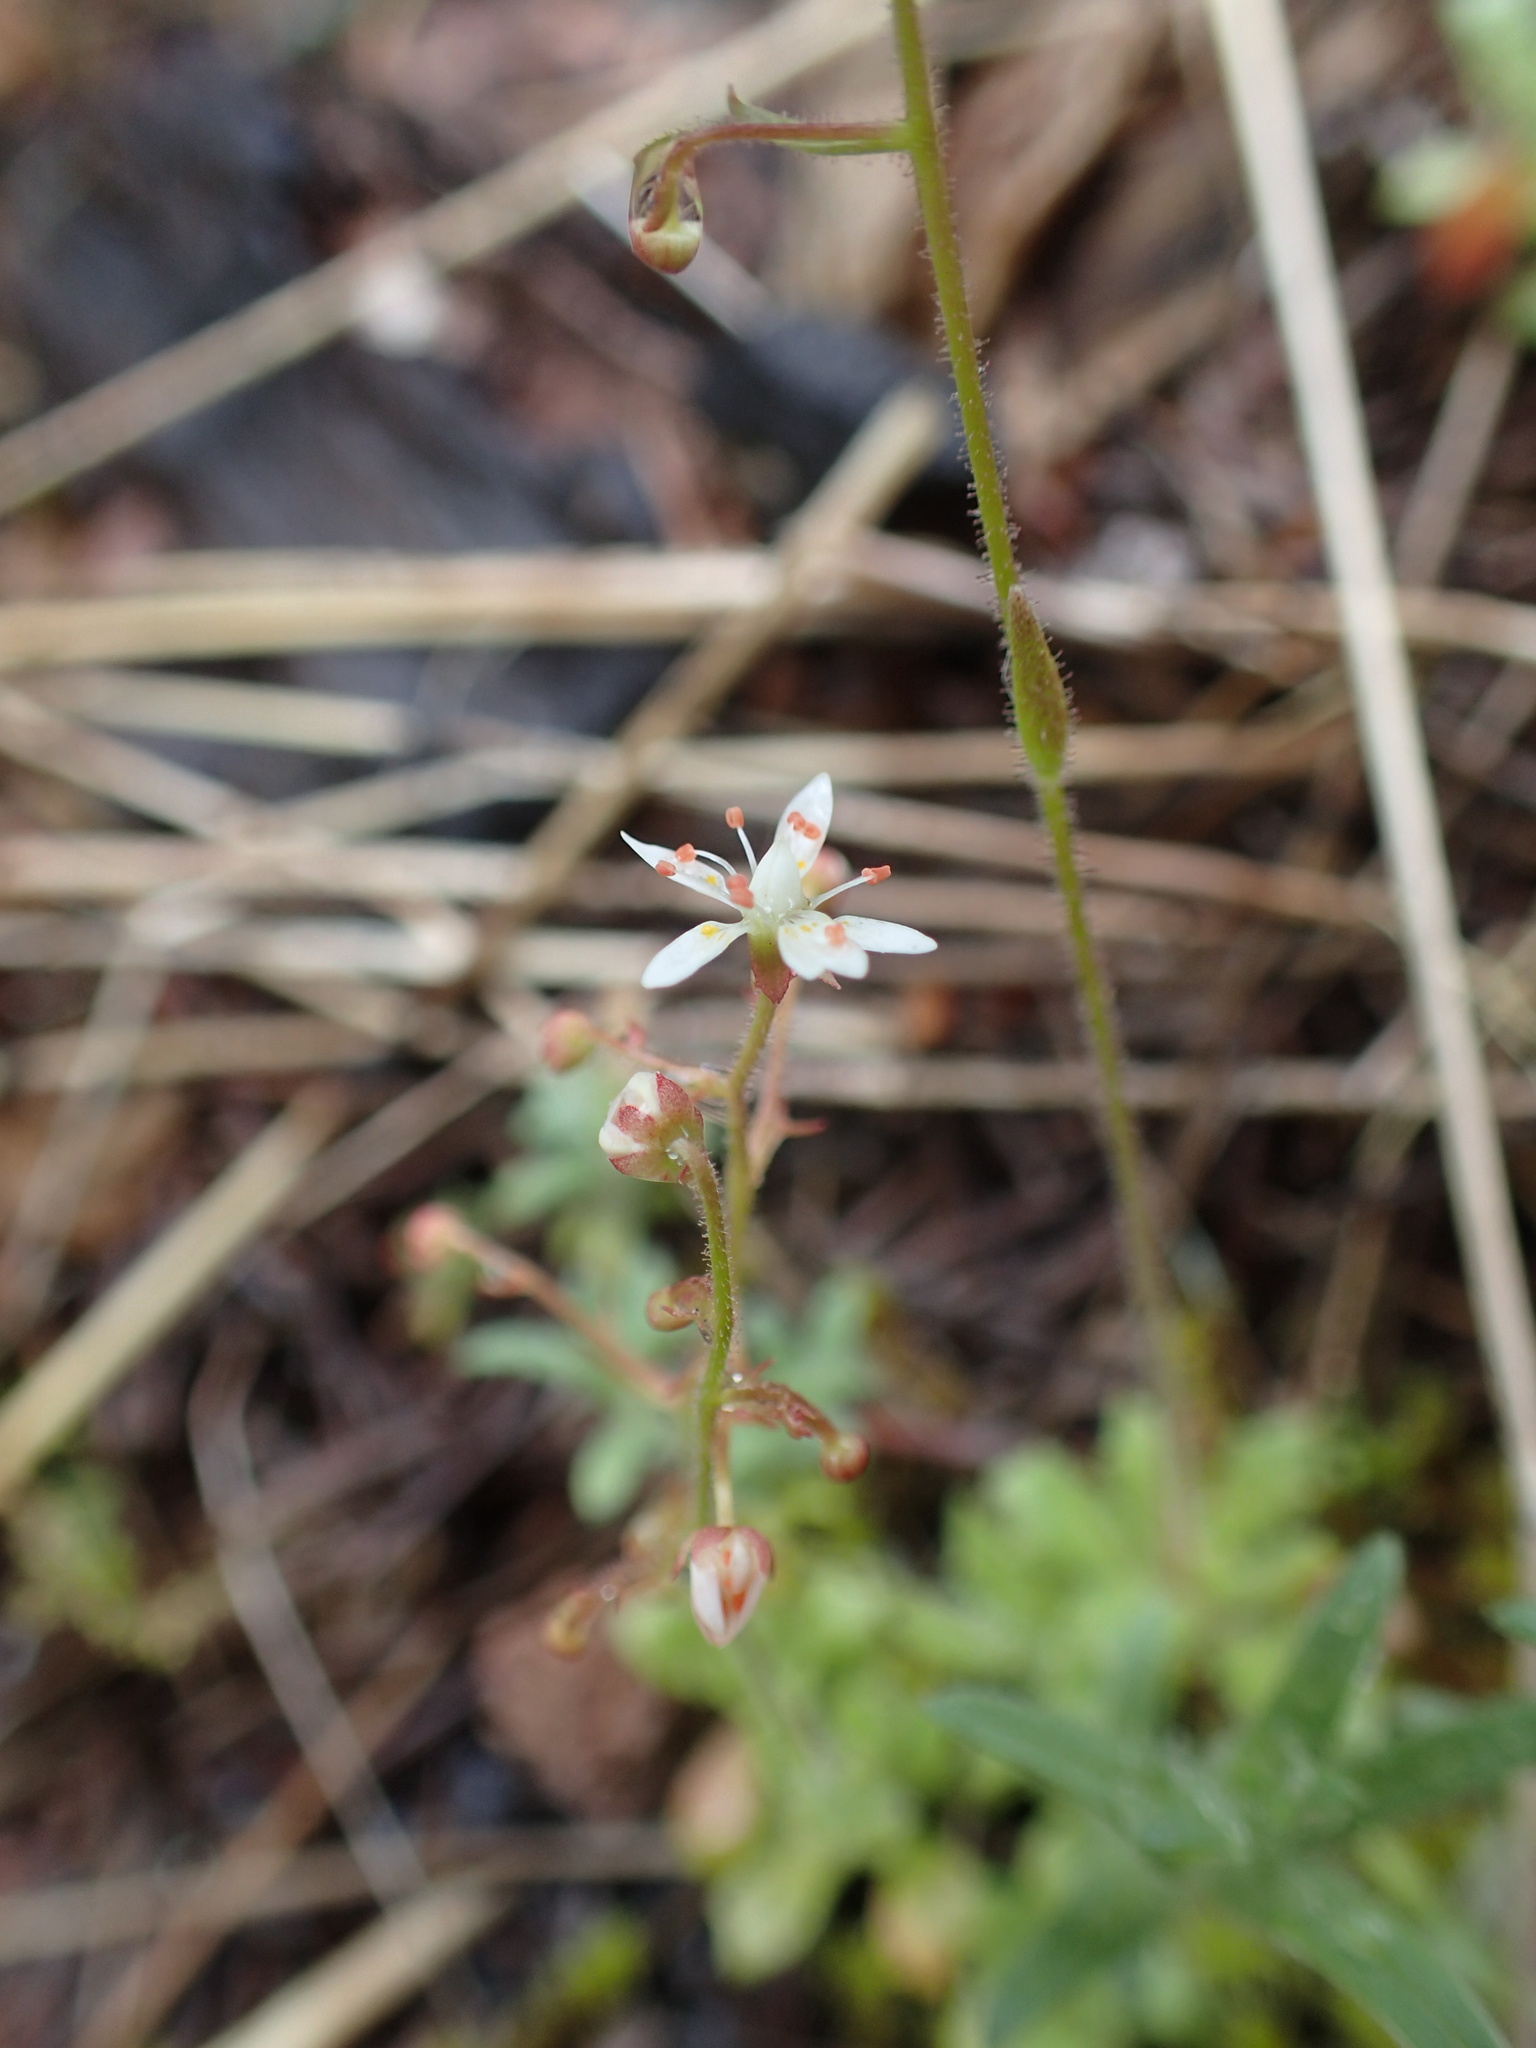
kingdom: Plantae
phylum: Tracheophyta
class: Magnoliopsida
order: Saxifragales
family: Saxifragaceae
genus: Micranthes
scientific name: Micranthes ferruginea
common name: Rusty saxifrage
